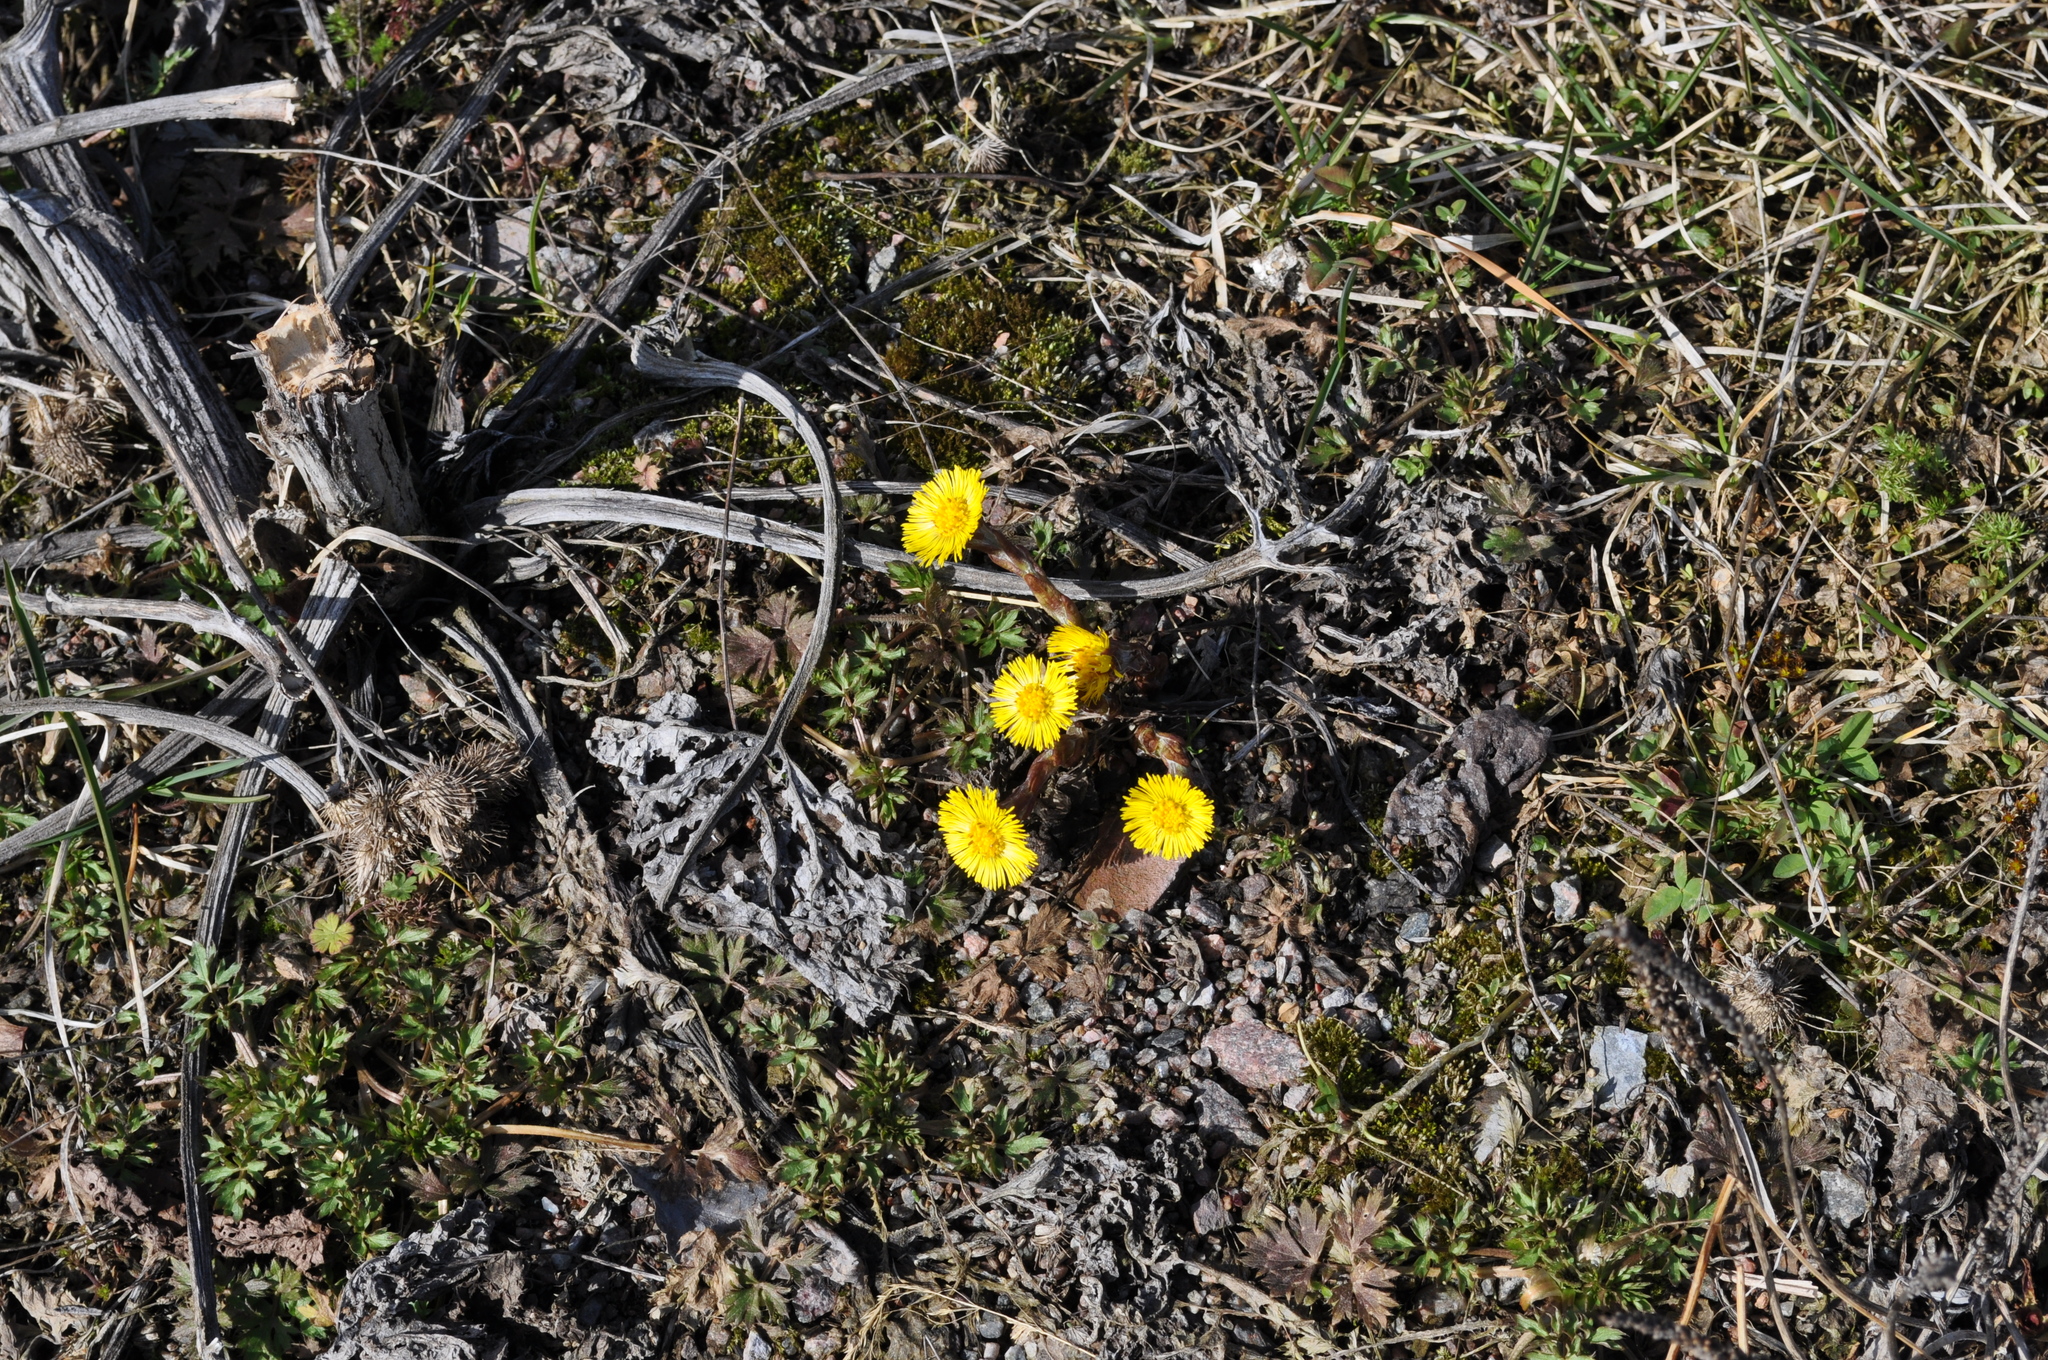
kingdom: Plantae
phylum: Tracheophyta
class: Magnoliopsida
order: Asterales
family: Asteraceae
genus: Tussilago
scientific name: Tussilago farfara
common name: Coltsfoot
